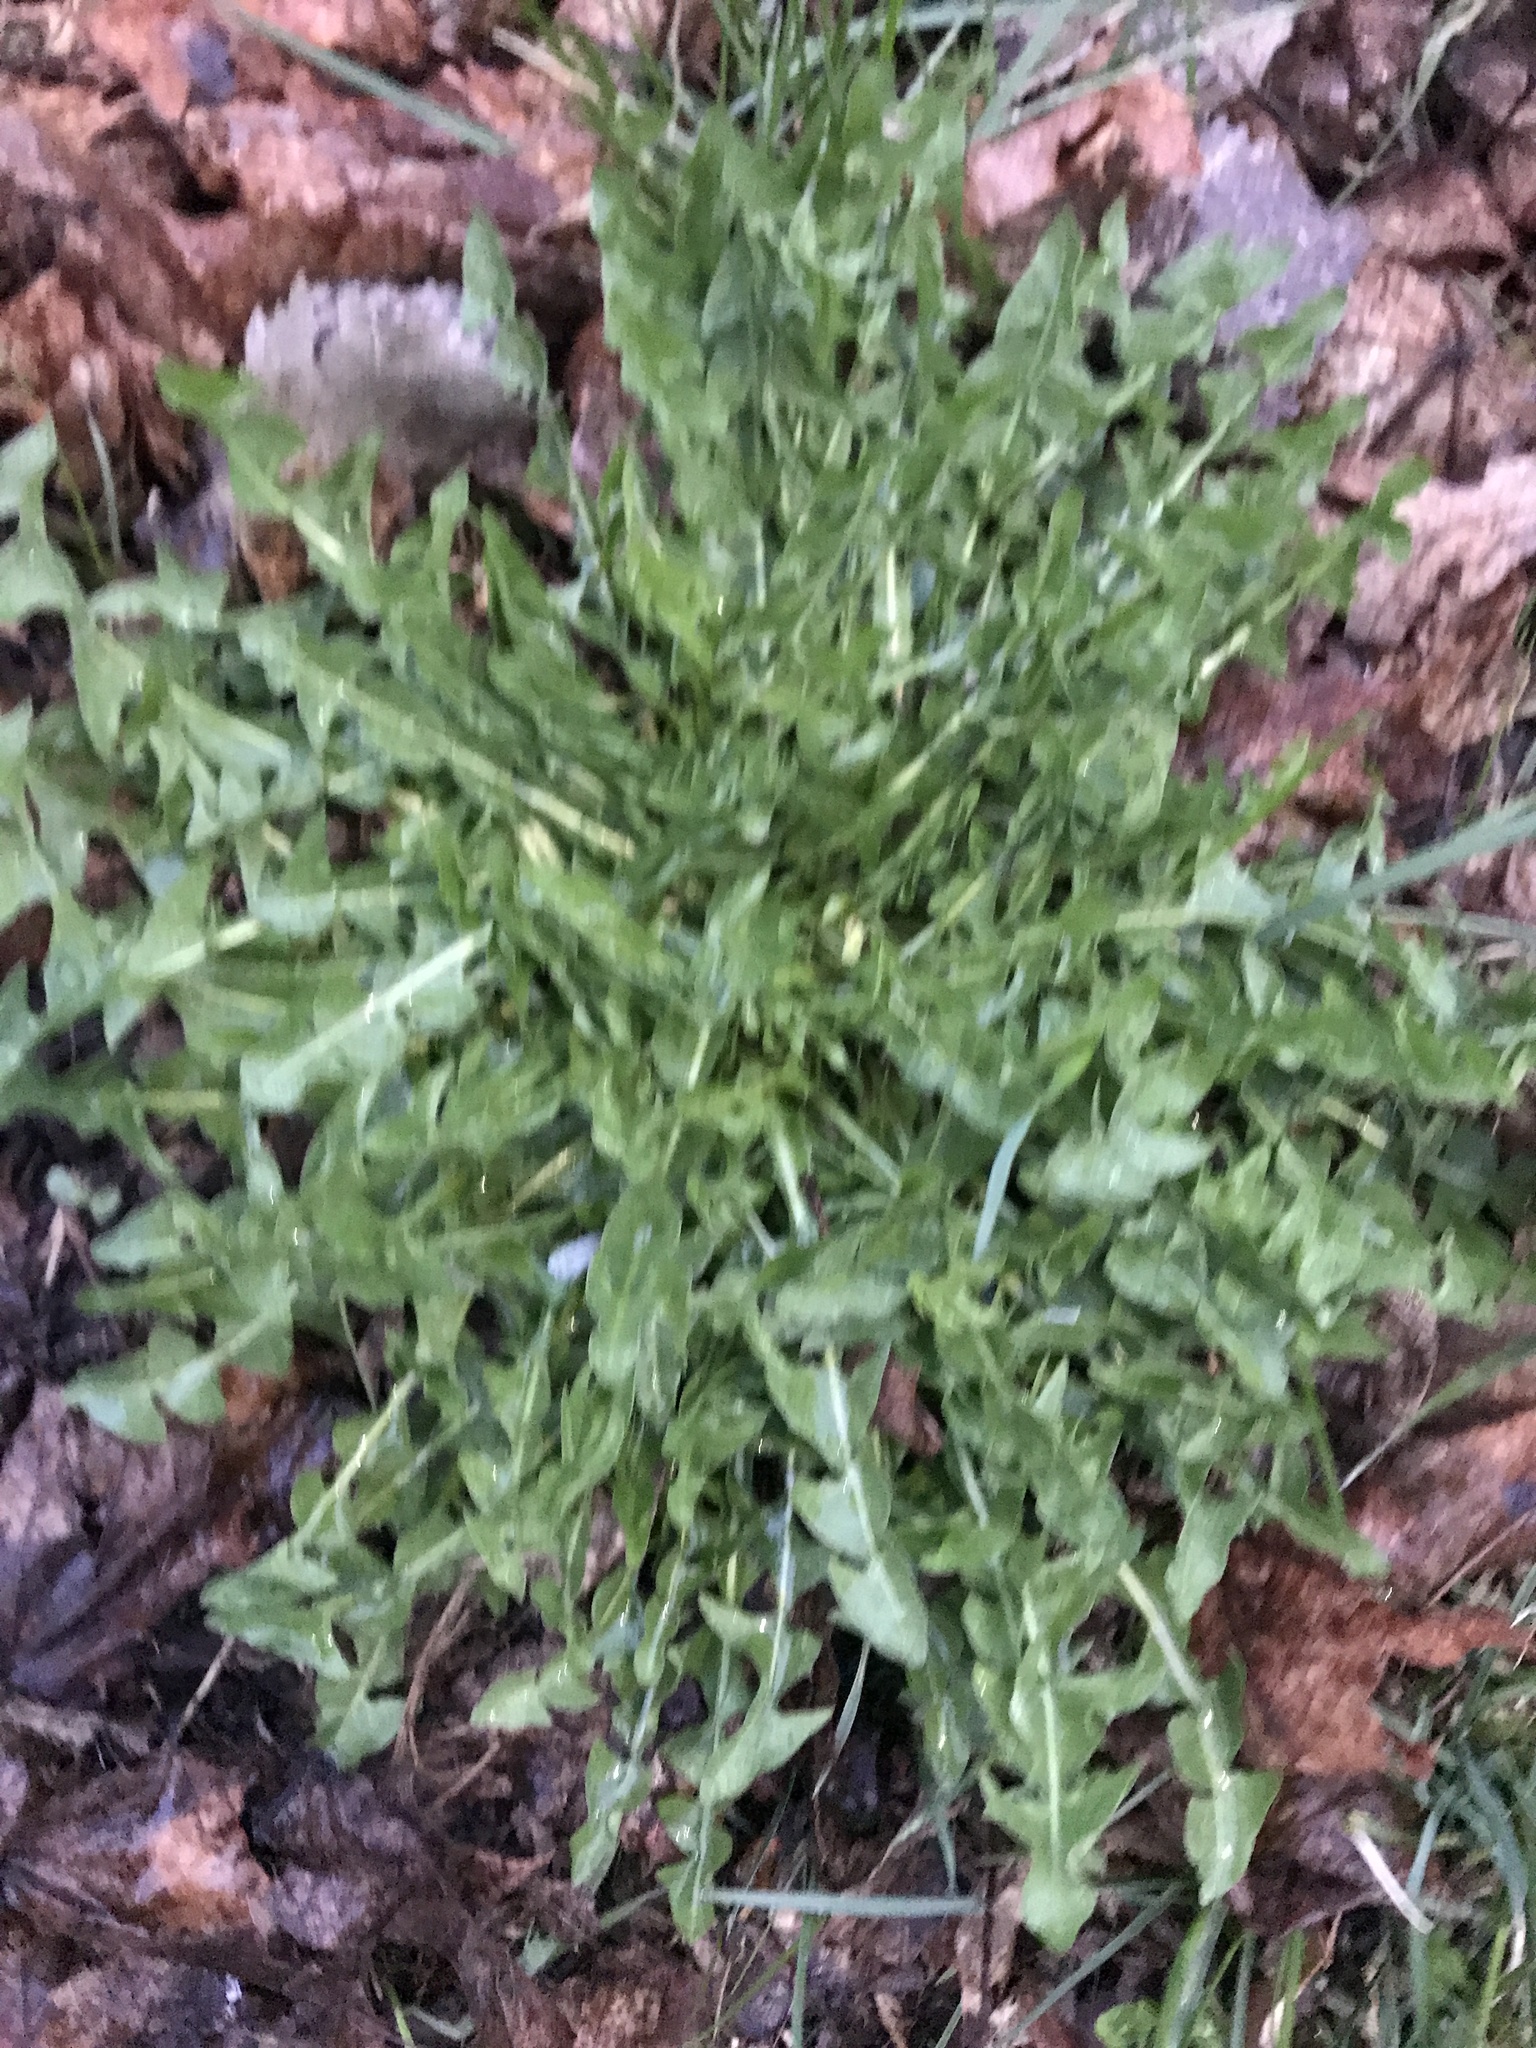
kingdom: Plantae
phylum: Tracheophyta
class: Magnoliopsida
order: Asterales
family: Asteraceae
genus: Taraxacum
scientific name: Taraxacum officinale
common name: Common dandelion
